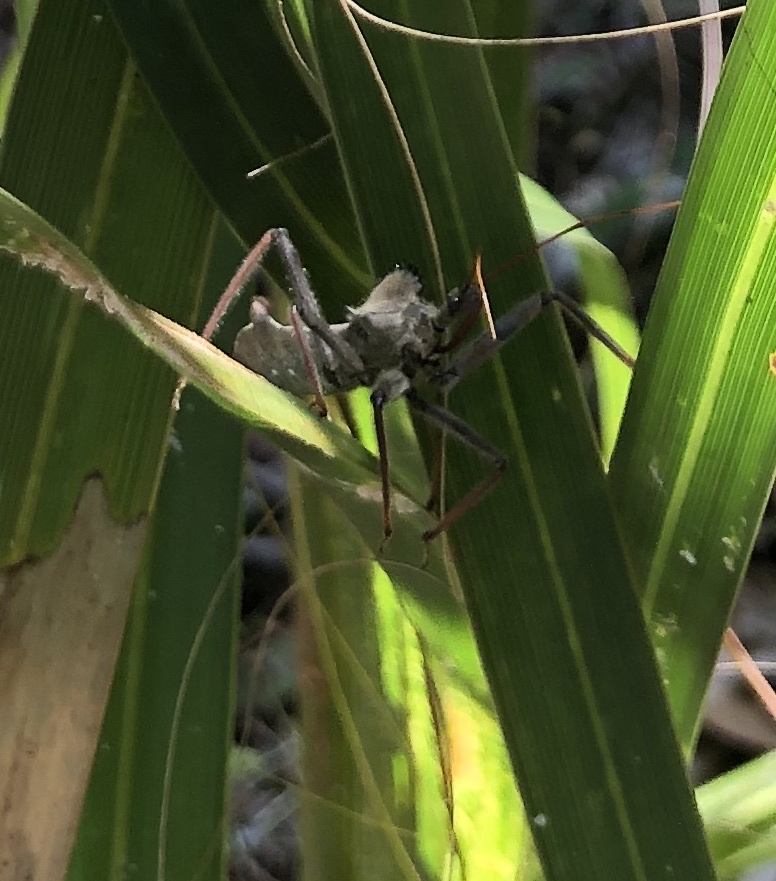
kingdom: Animalia
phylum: Arthropoda
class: Insecta
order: Hemiptera
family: Reduviidae
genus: Arilus
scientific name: Arilus cristatus
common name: North american wheel bug
